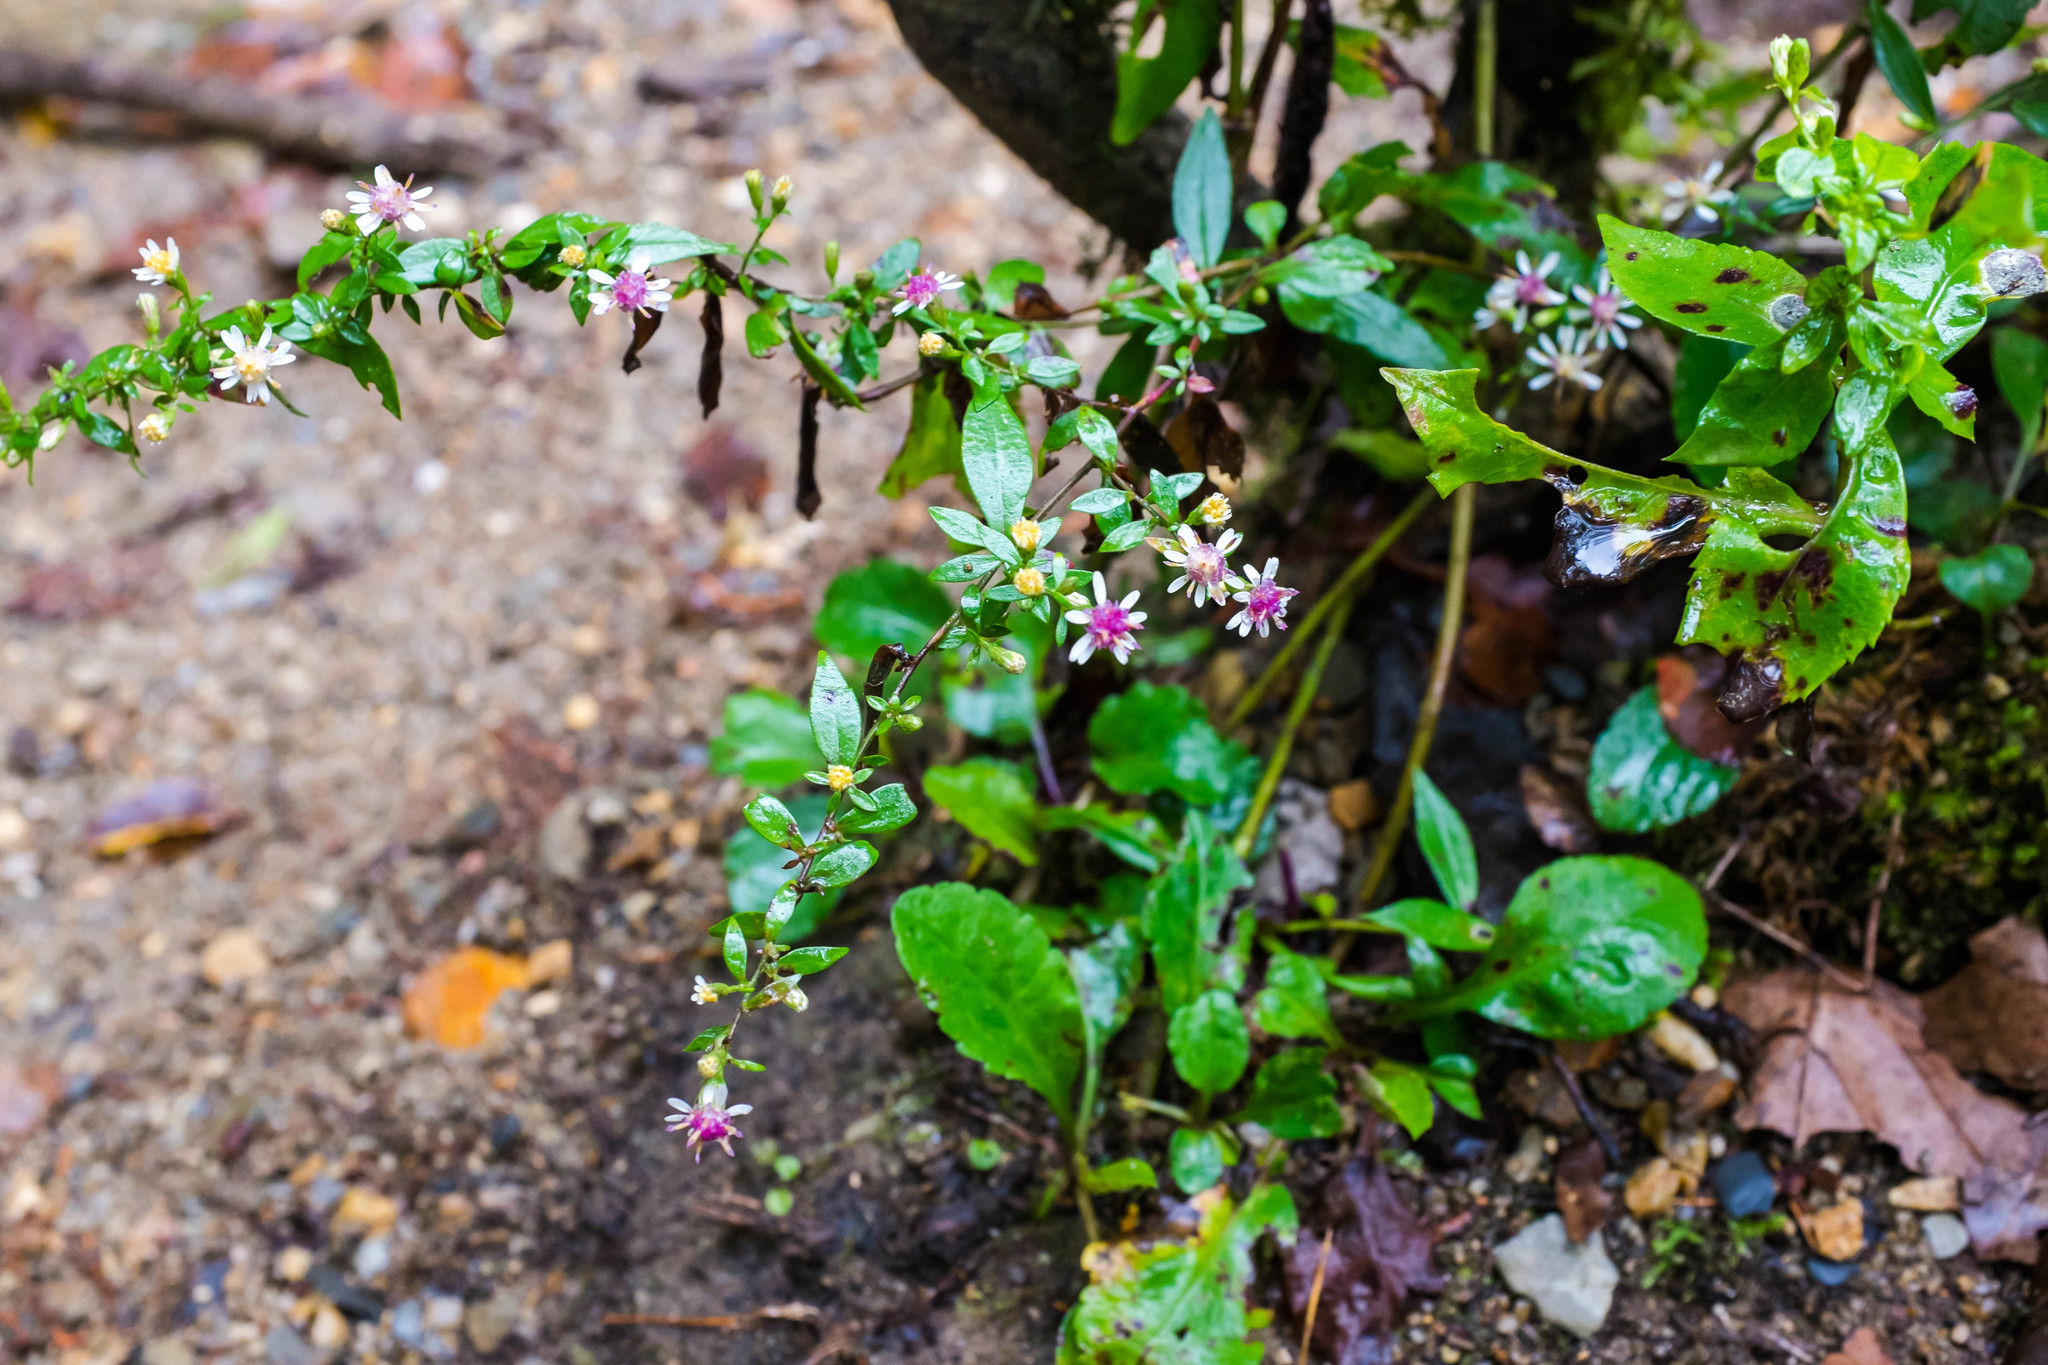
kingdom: Plantae
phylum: Tracheophyta
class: Magnoliopsida
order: Asterales
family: Asteraceae
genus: Symphyotrichum
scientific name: Symphyotrichum lateriflorum
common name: Calico aster
